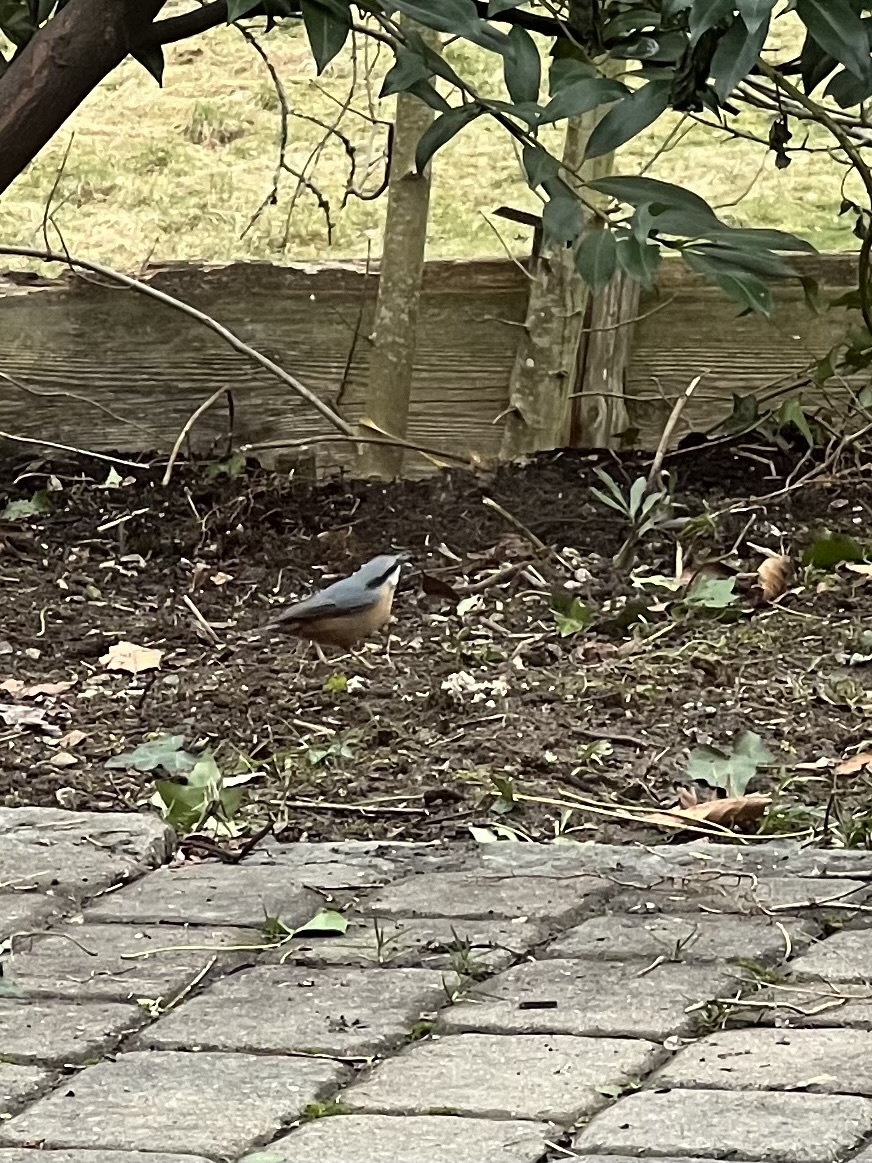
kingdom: Animalia
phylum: Chordata
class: Aves
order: Passeriformes
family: Sittidae
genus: Sitta
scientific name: Sitta europaea
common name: Eurasian nuthatch
